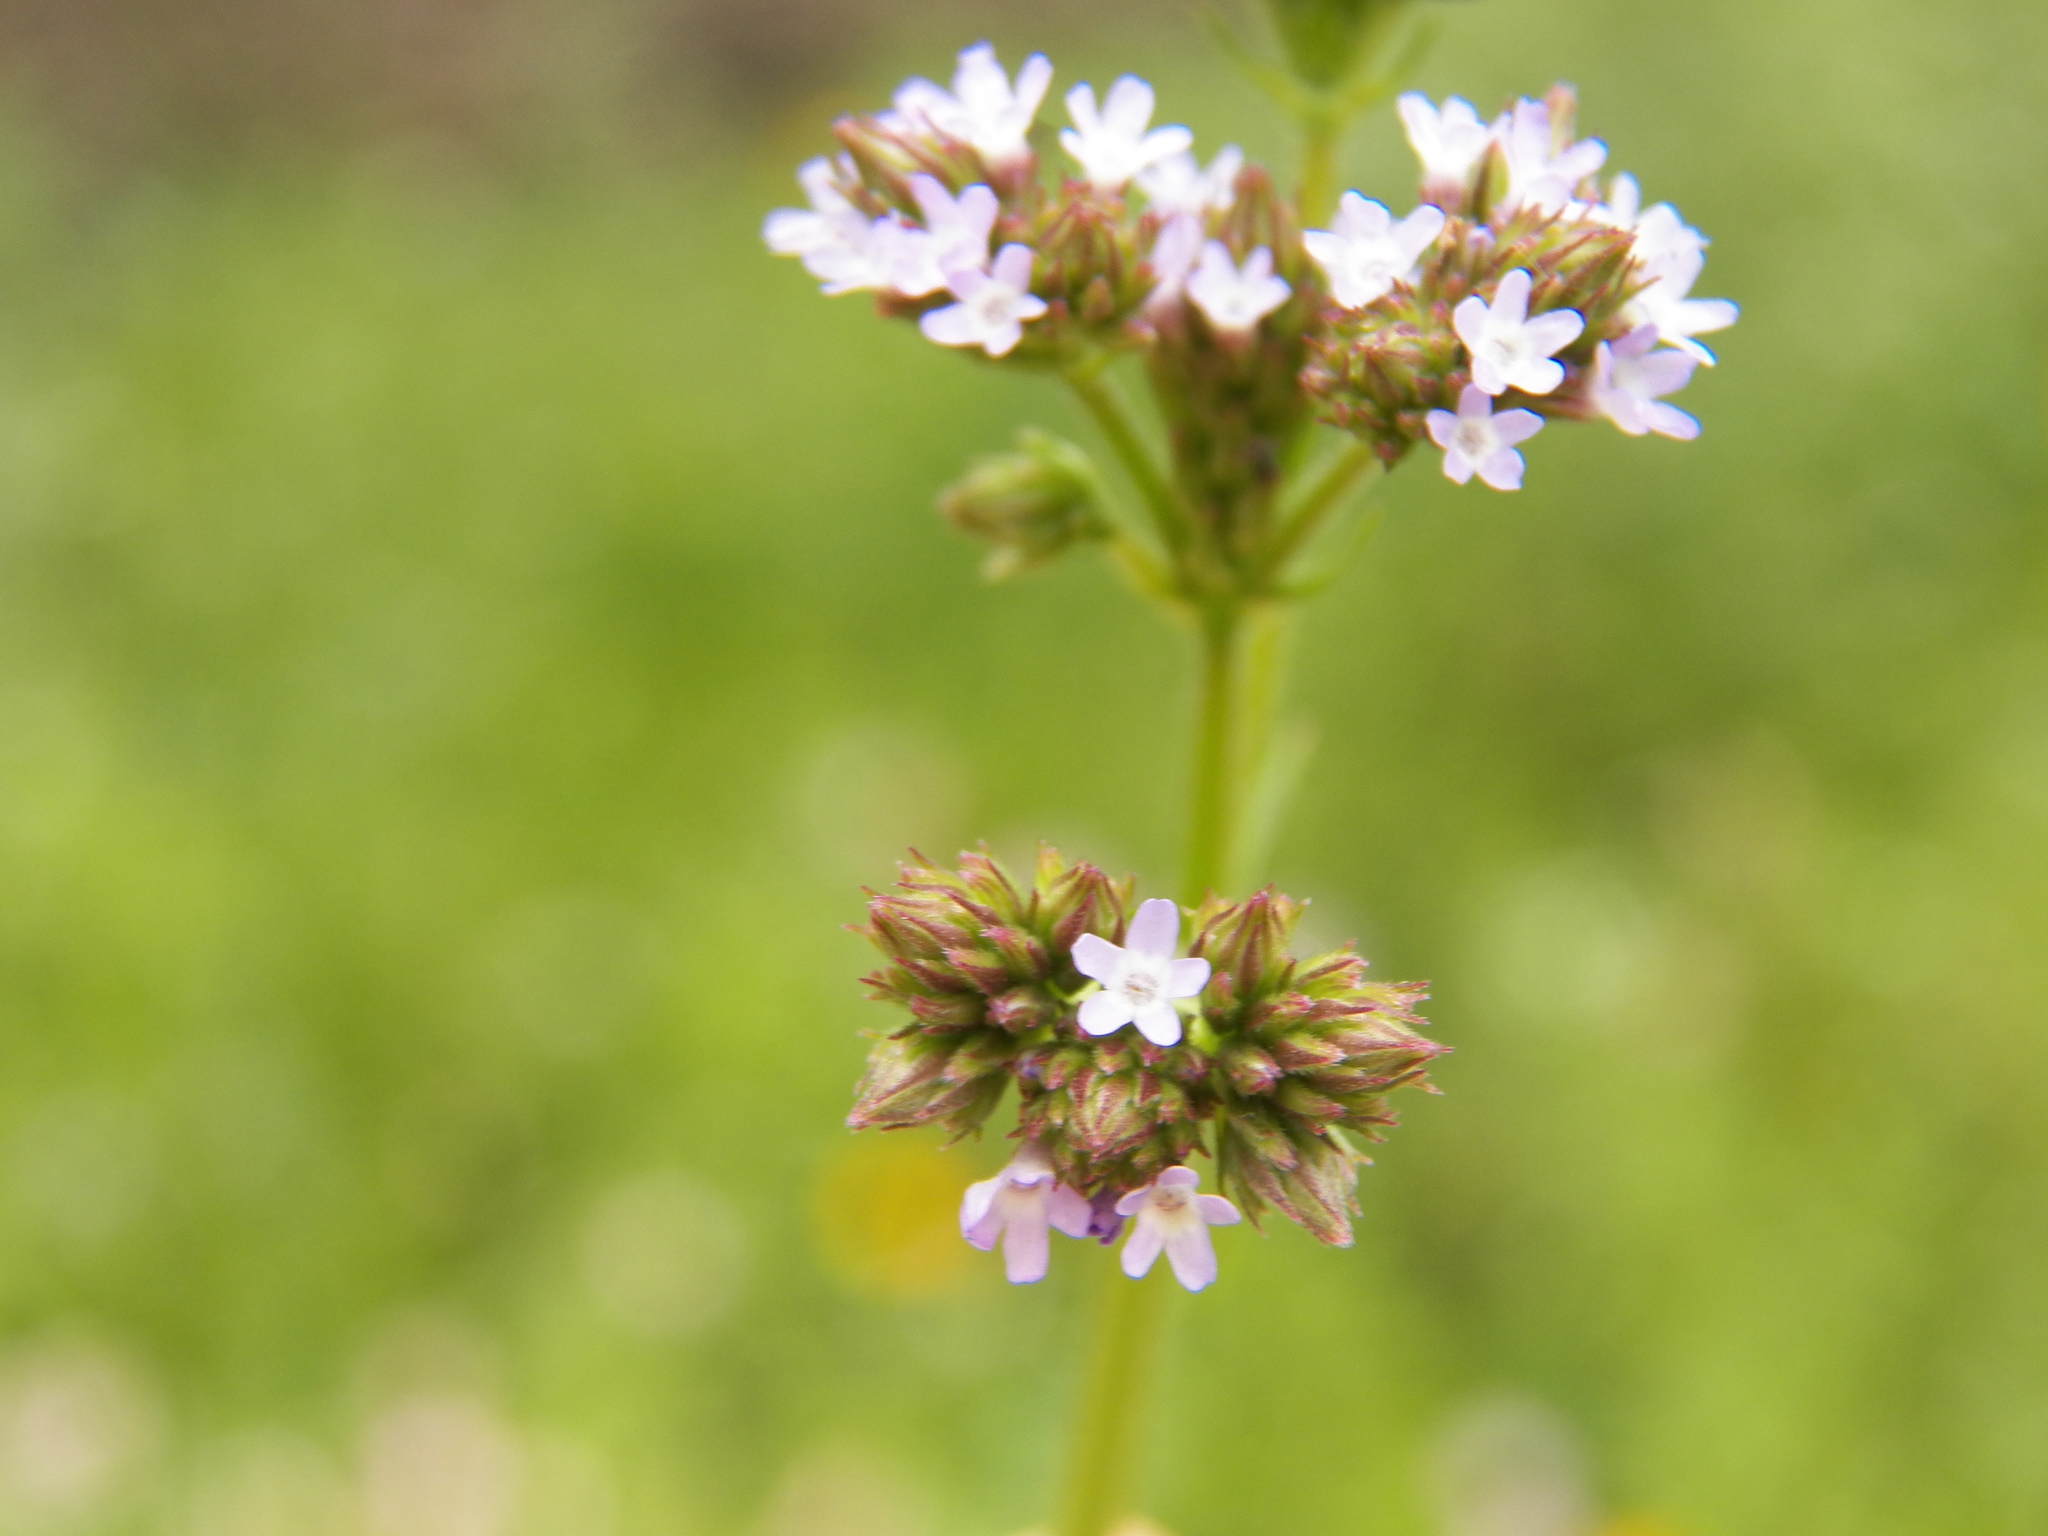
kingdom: Plantae
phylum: Tracheophyta
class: Magnoliopsida
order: Lamiales
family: Verbenaceae
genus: Verbena
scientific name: Verbena brasiliensis
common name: Brazilian vervain
